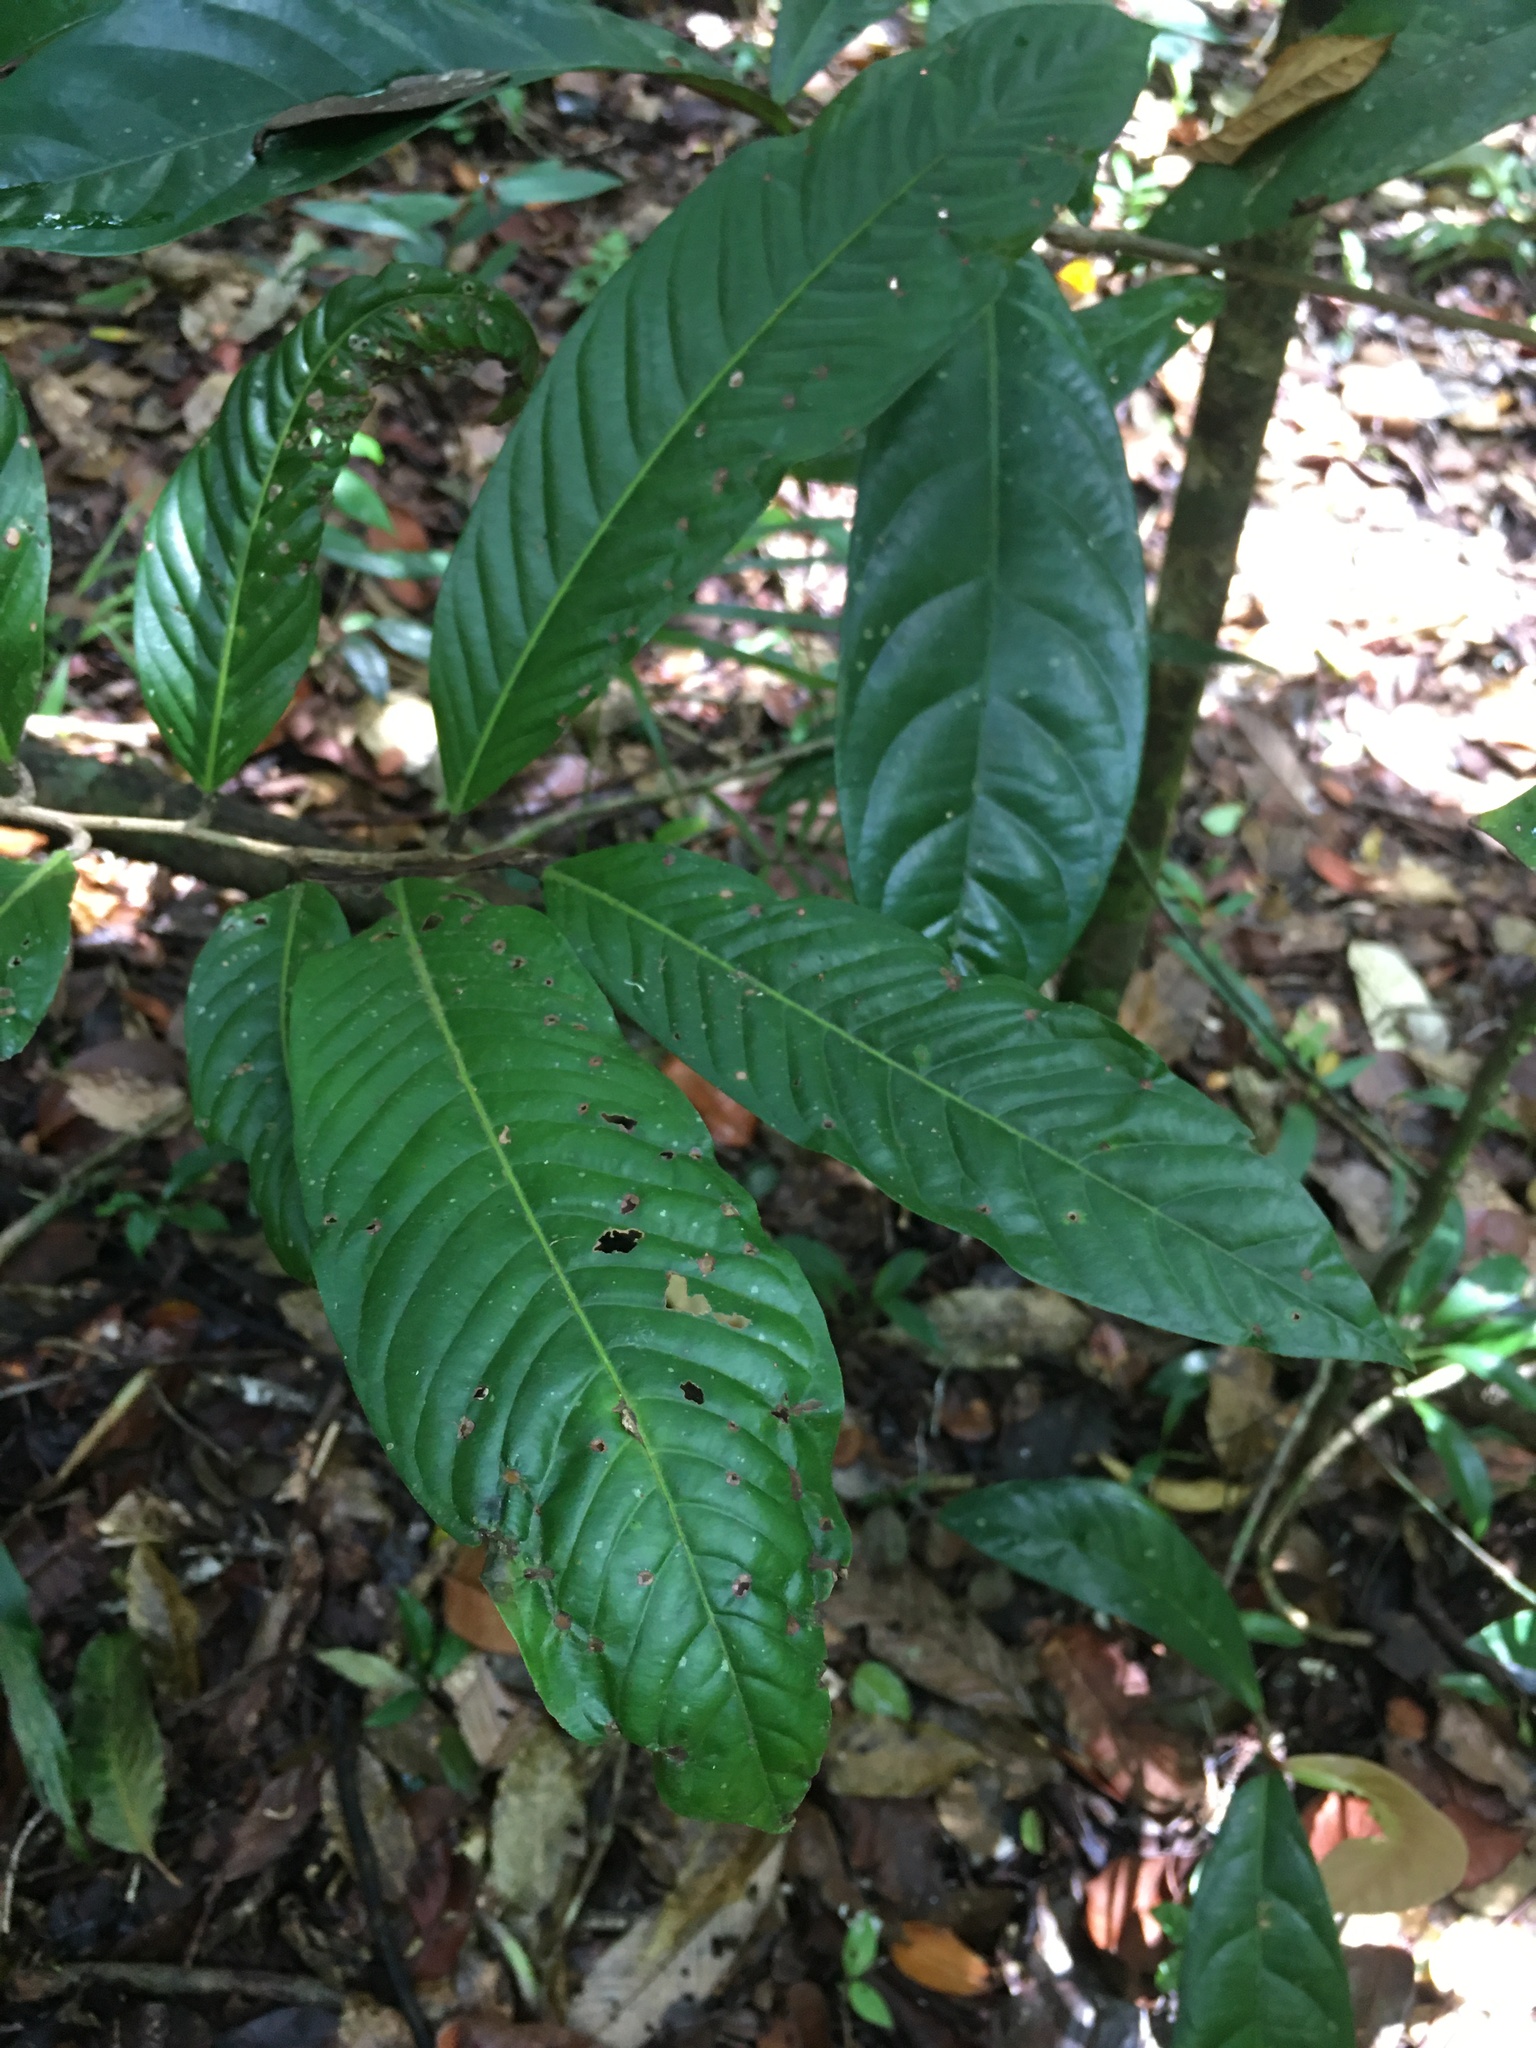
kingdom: Plantae
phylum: Tracheophyta
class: Magnoliopsida
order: Malpighiales
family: Chrysobalanaceae
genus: Couepia
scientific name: Couepia impressa
